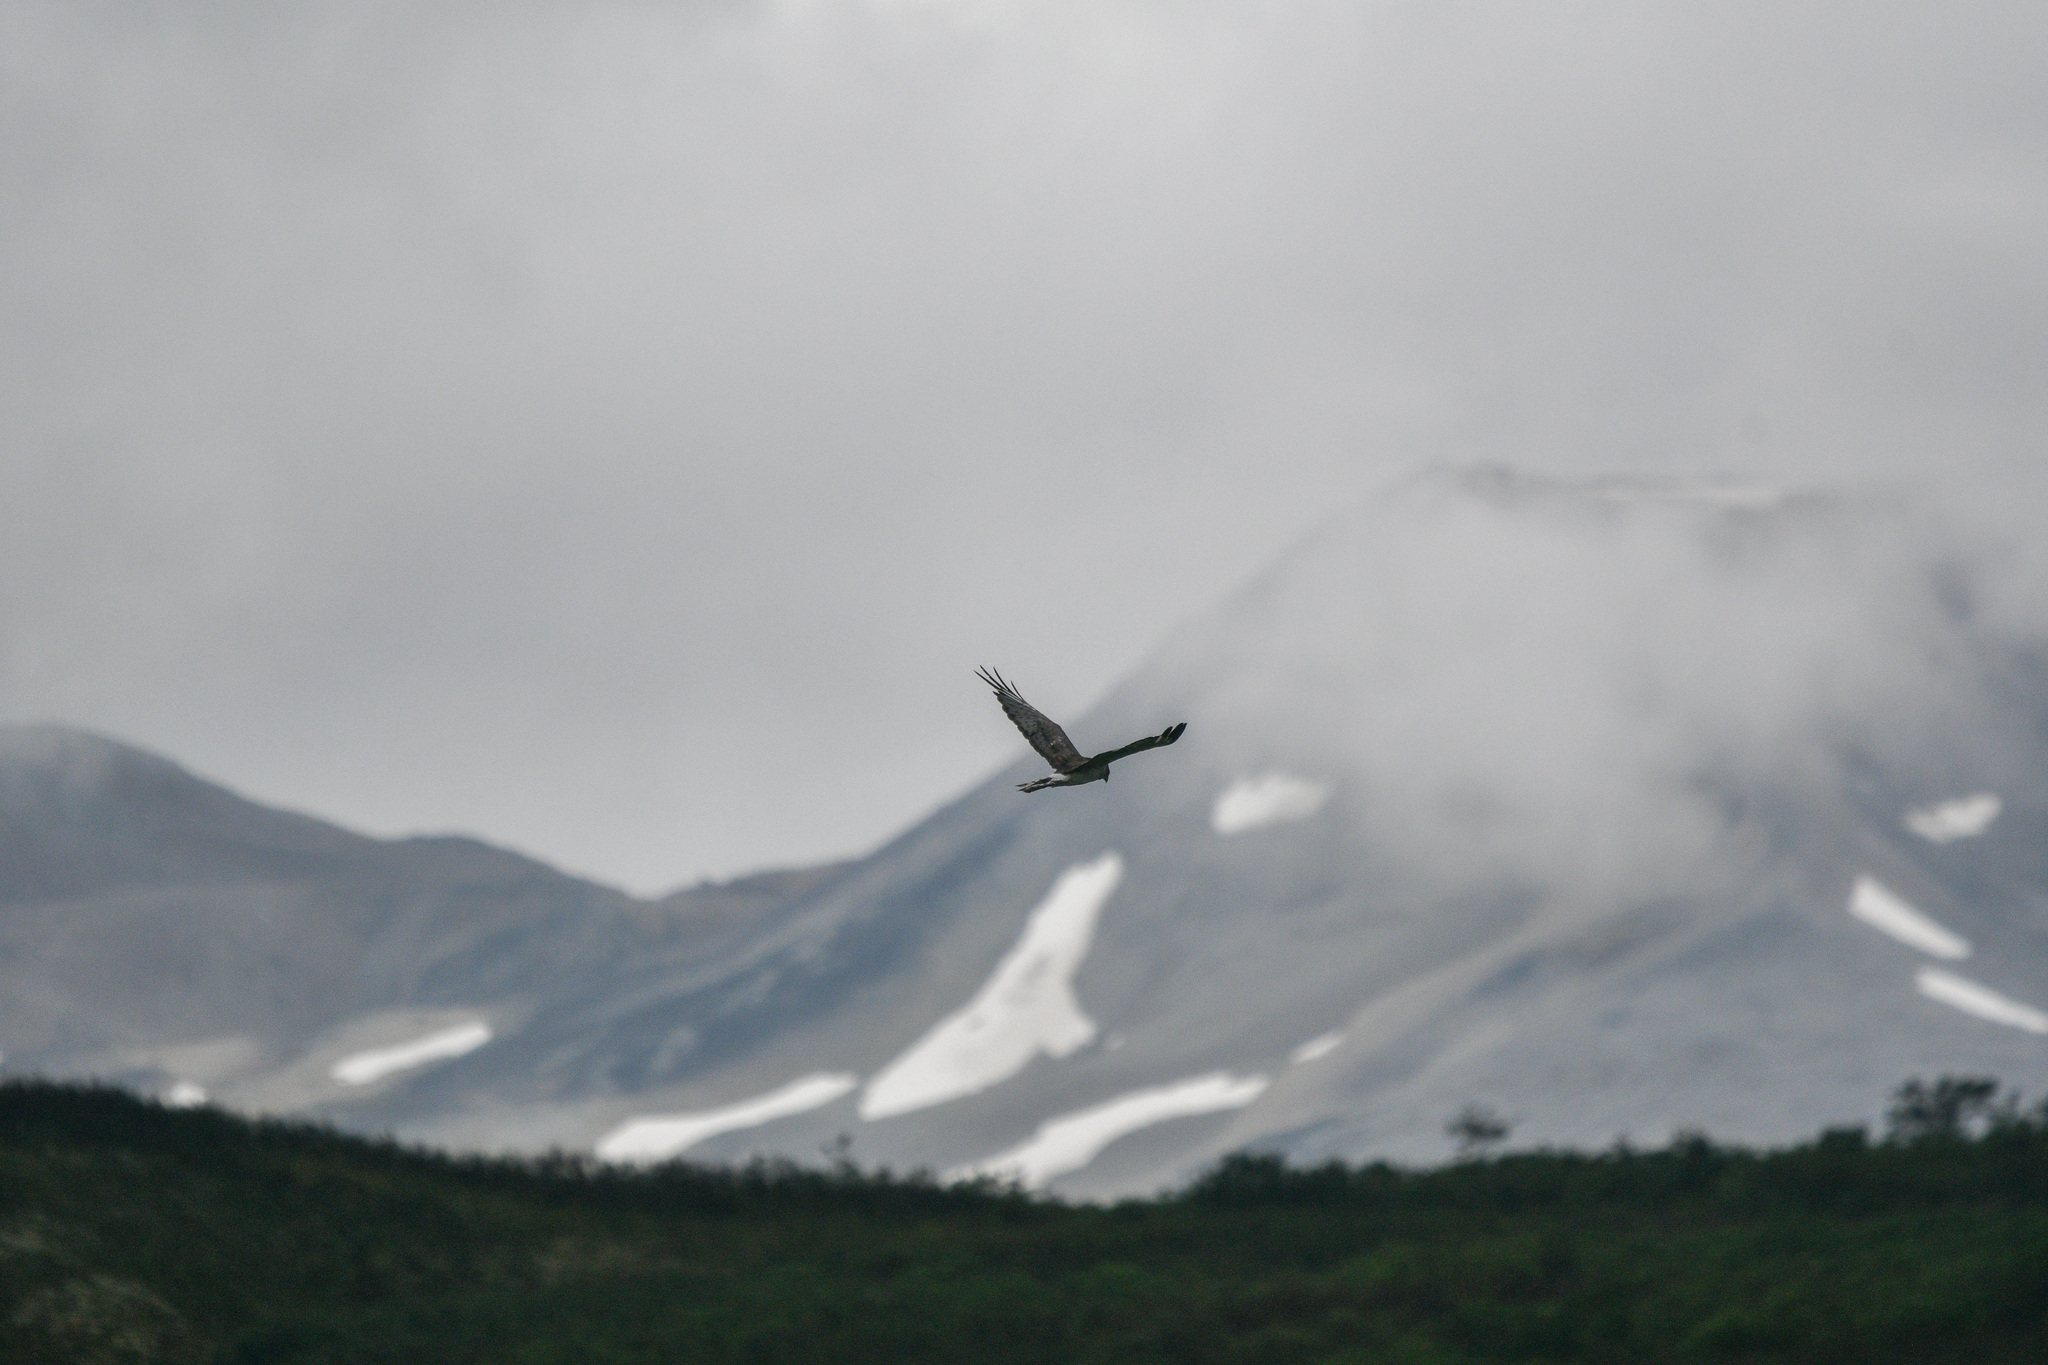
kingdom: Animalia
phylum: Chordata
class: Aves
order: Accipitriformes
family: Accipitridae
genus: Circus
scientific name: Circus cyaneus
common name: Hen harrier
